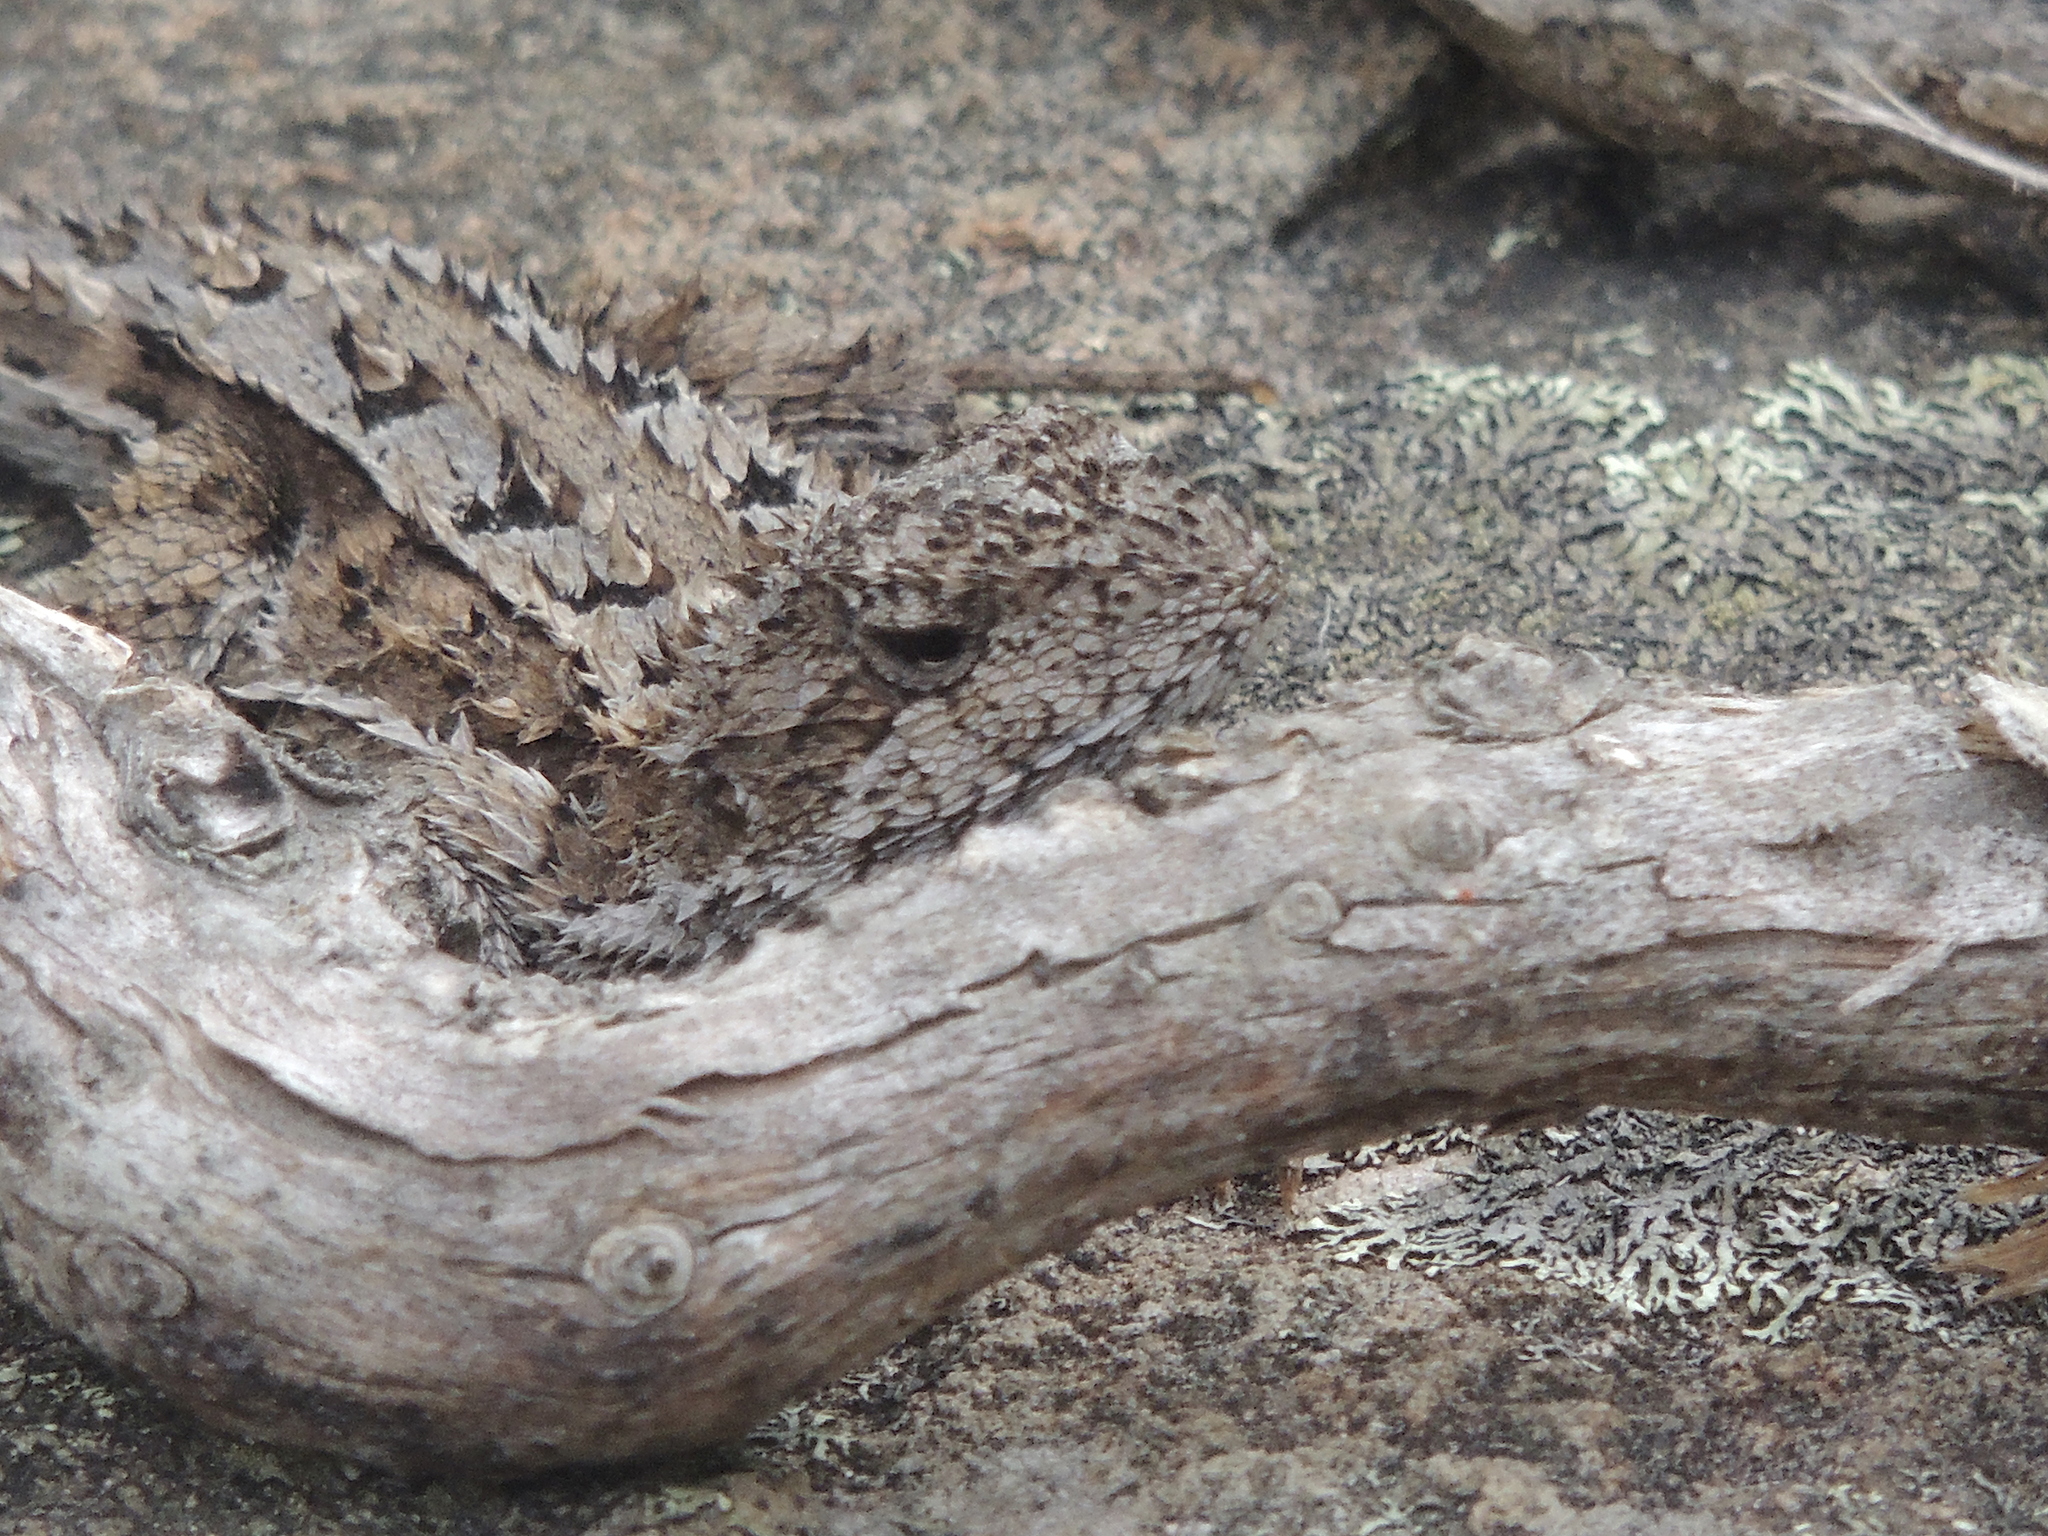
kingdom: Animalia
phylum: Chordata
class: Squamata
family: Agamidae
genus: Rankinia
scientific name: Rankinia diemensis
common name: Mountain dragon
